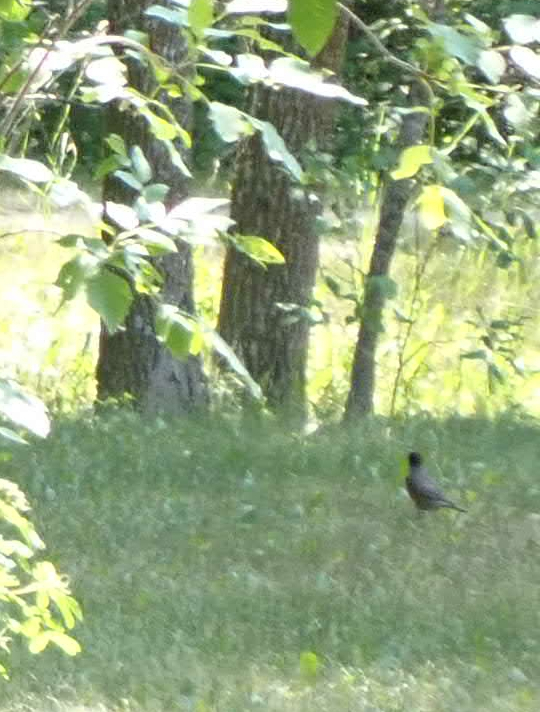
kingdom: Animalia
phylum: Chordata
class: Aves
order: Passeriformes
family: Turdidae
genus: Turdus
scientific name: Turdus migratorius
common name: American robin
